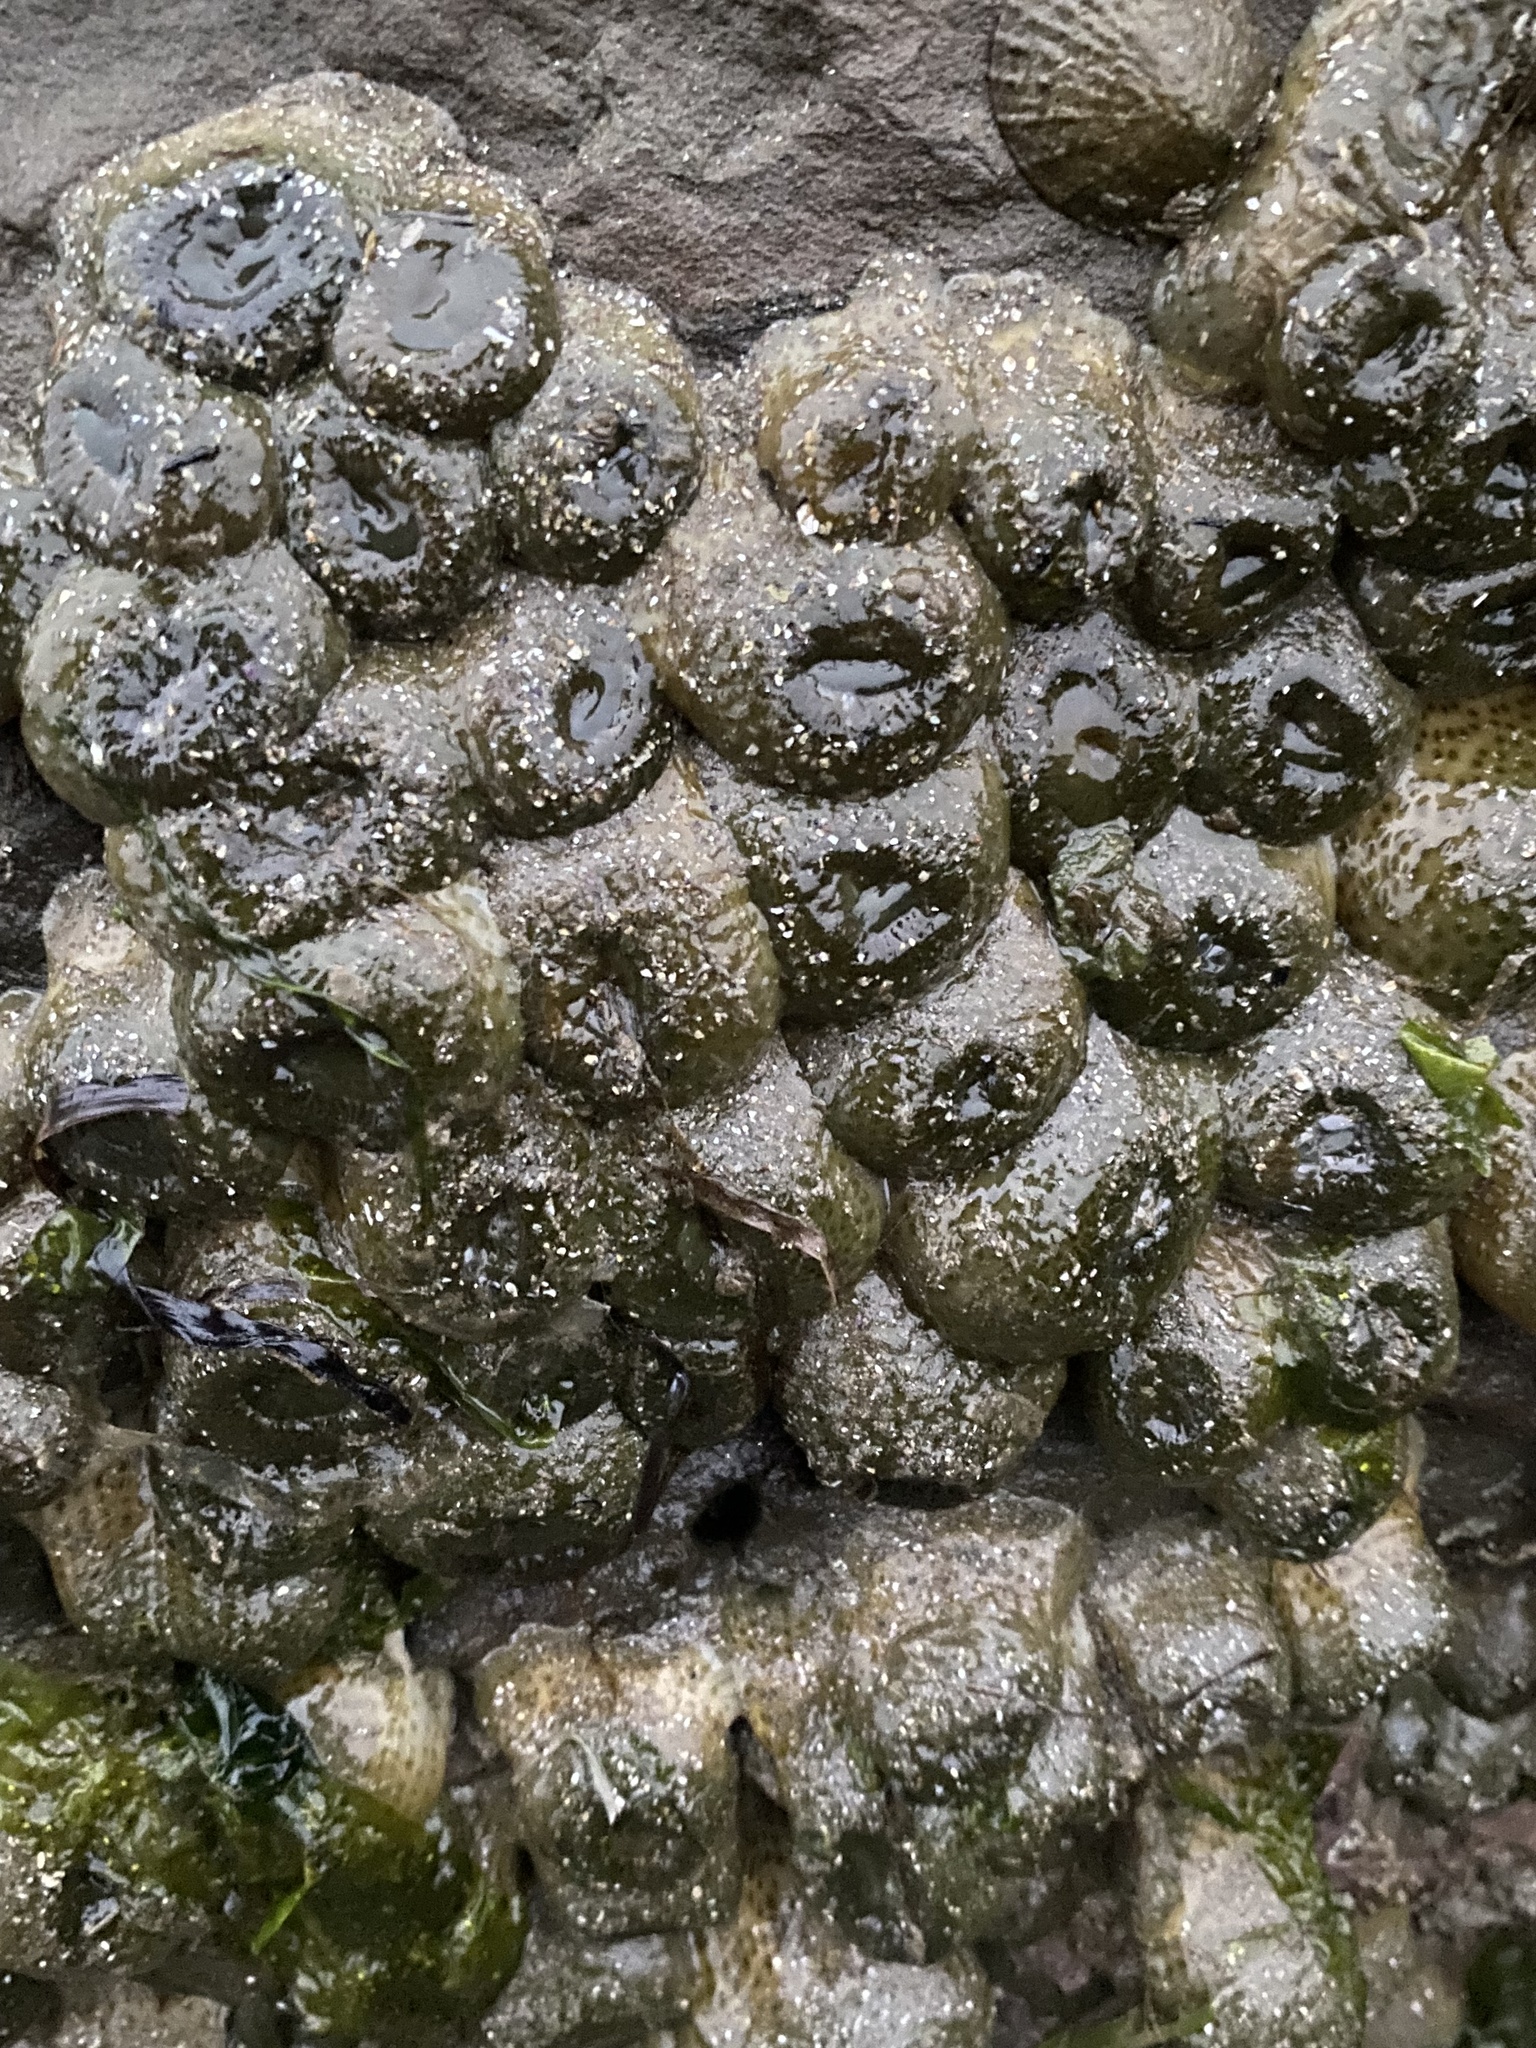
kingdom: Animalia
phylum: Cnidaria
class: Anthozoa
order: Actiniaria
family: Actiniidae
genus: Anthopleura
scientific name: Anthopleura elegantissima
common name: Clonal anemone
